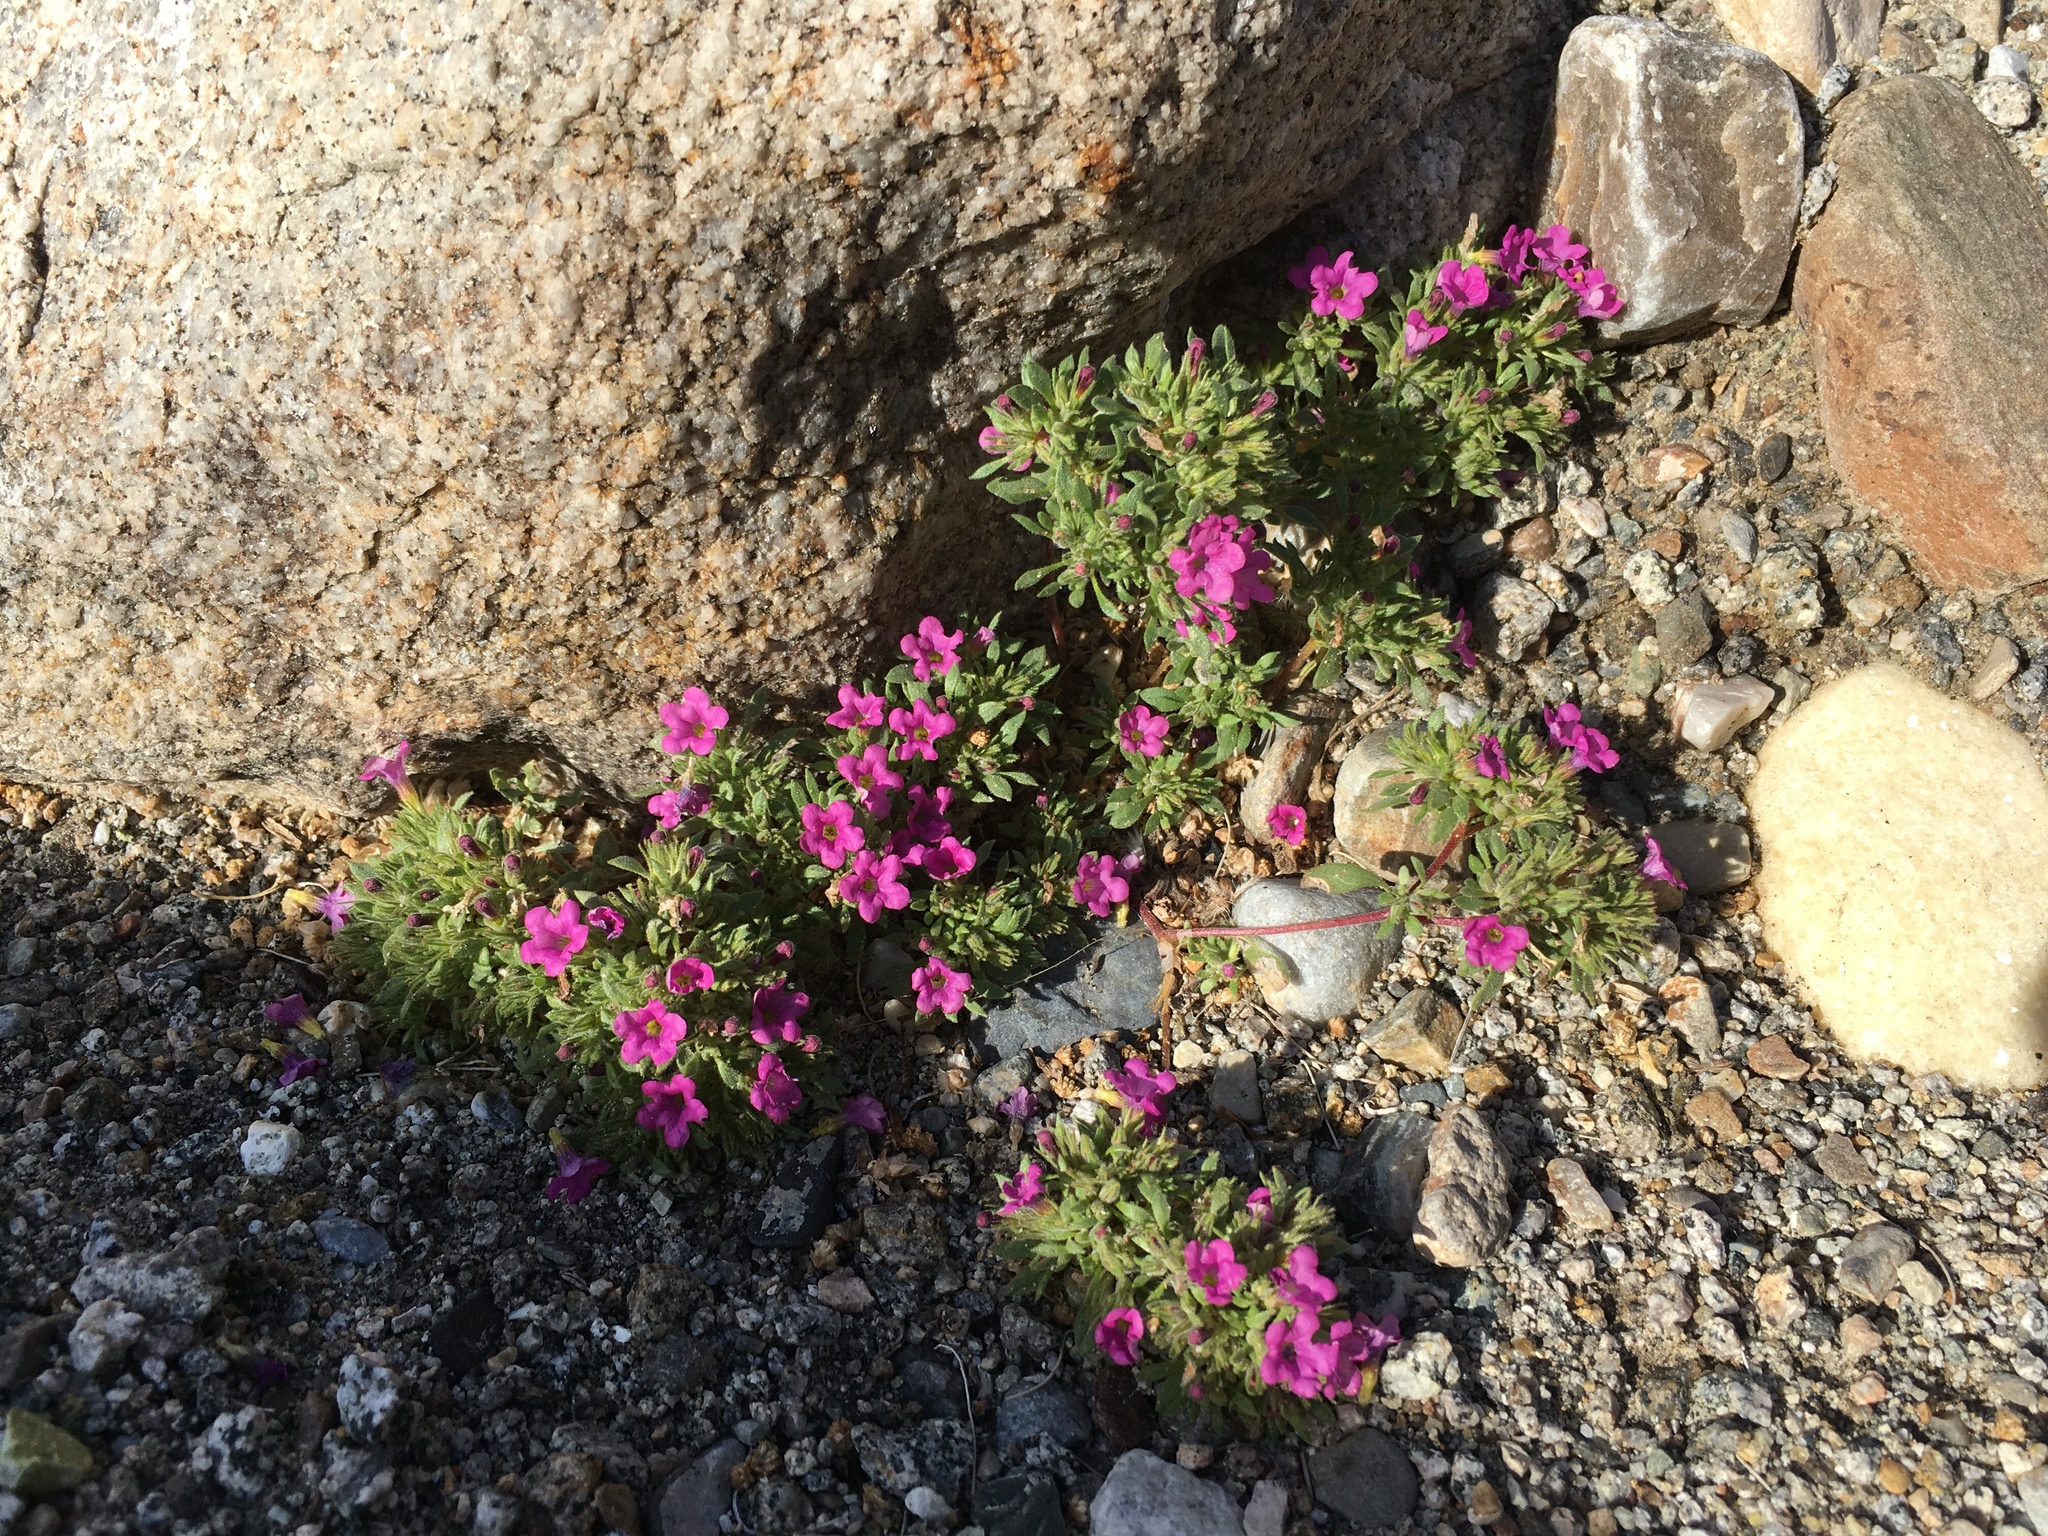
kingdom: Plantae
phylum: Tracheophyta
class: Magnoliopsida
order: Boraginales
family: Namaceae
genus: Nama
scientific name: Nama demissa
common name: Leafy nama
